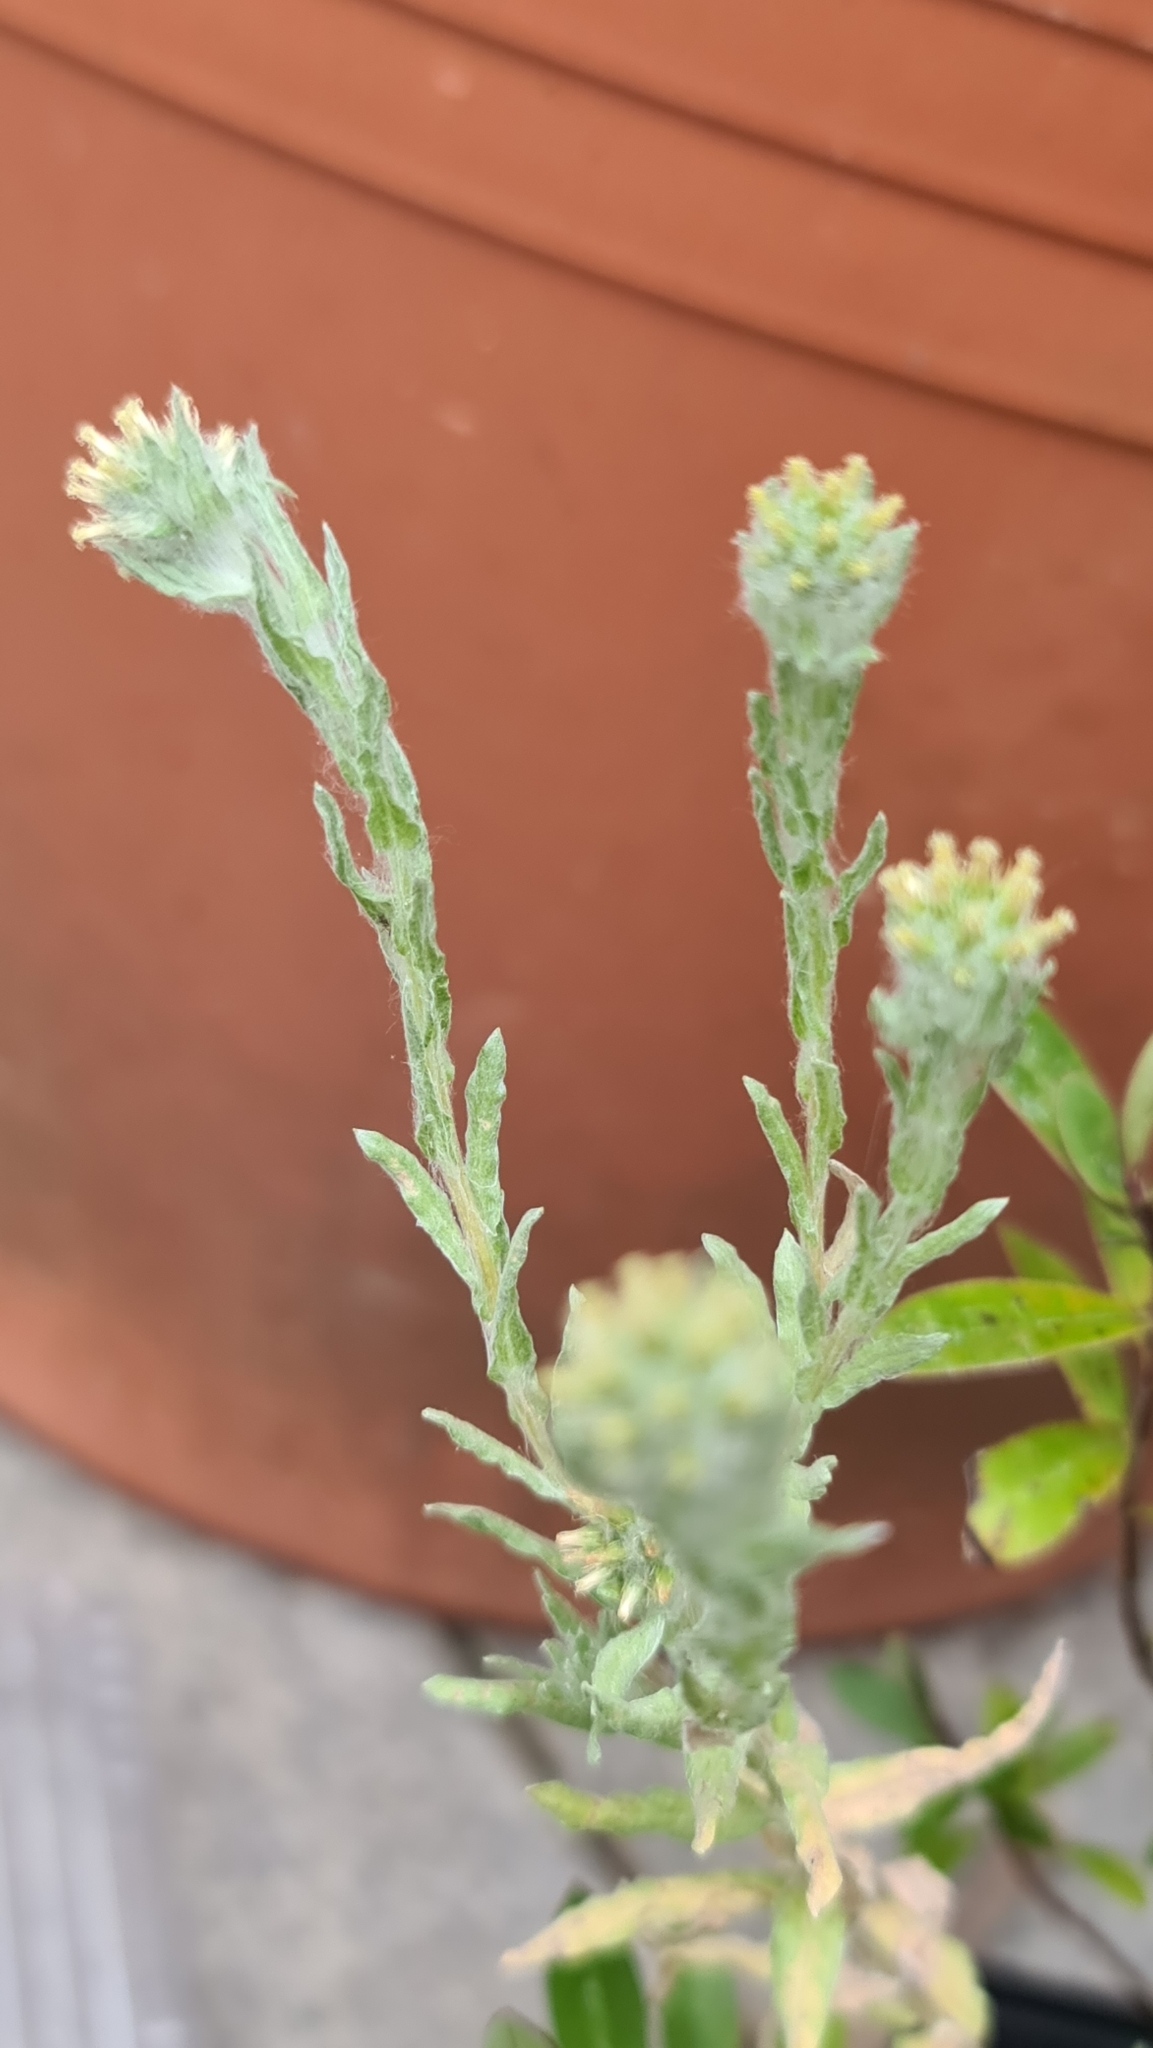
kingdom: Plantae
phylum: Tracheophyta
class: Magnoliopsida
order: Asterales
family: Asteraceae
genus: Filago
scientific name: Filago germanica
